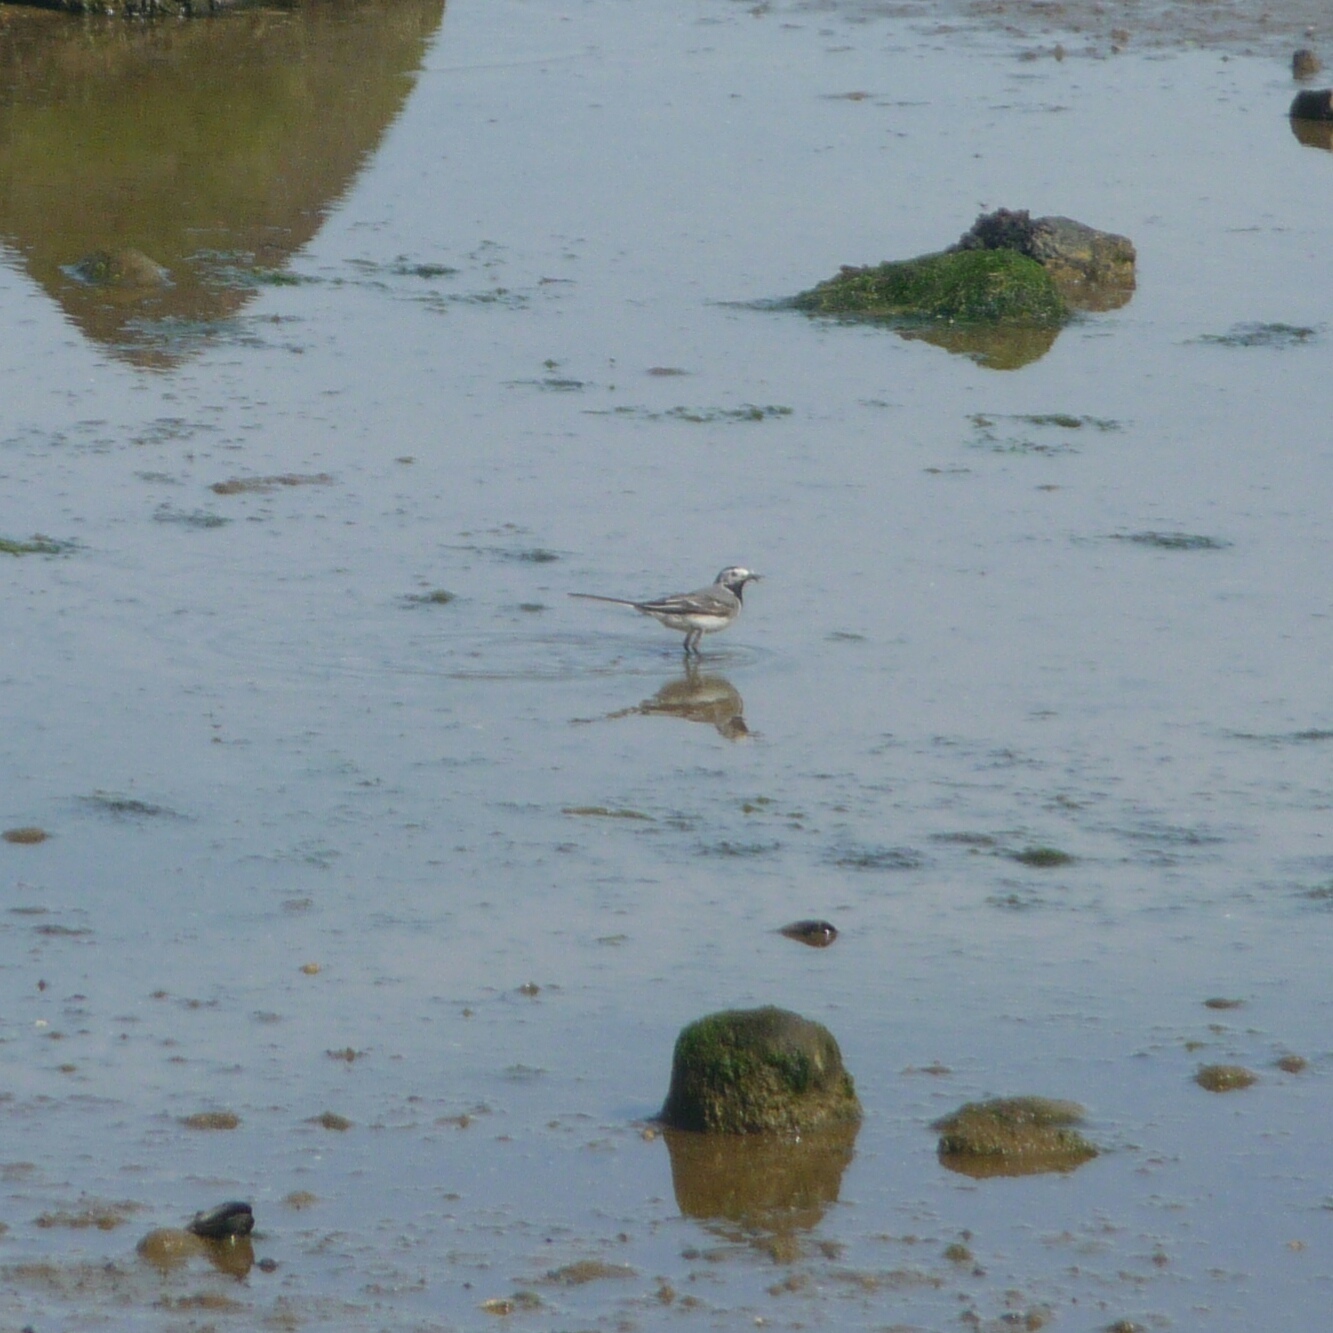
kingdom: Animalia
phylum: Chordata
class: Aves
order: Passeriformes
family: Motacillidae
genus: Motacilla
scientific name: Motacilla alba
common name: White wagtail
